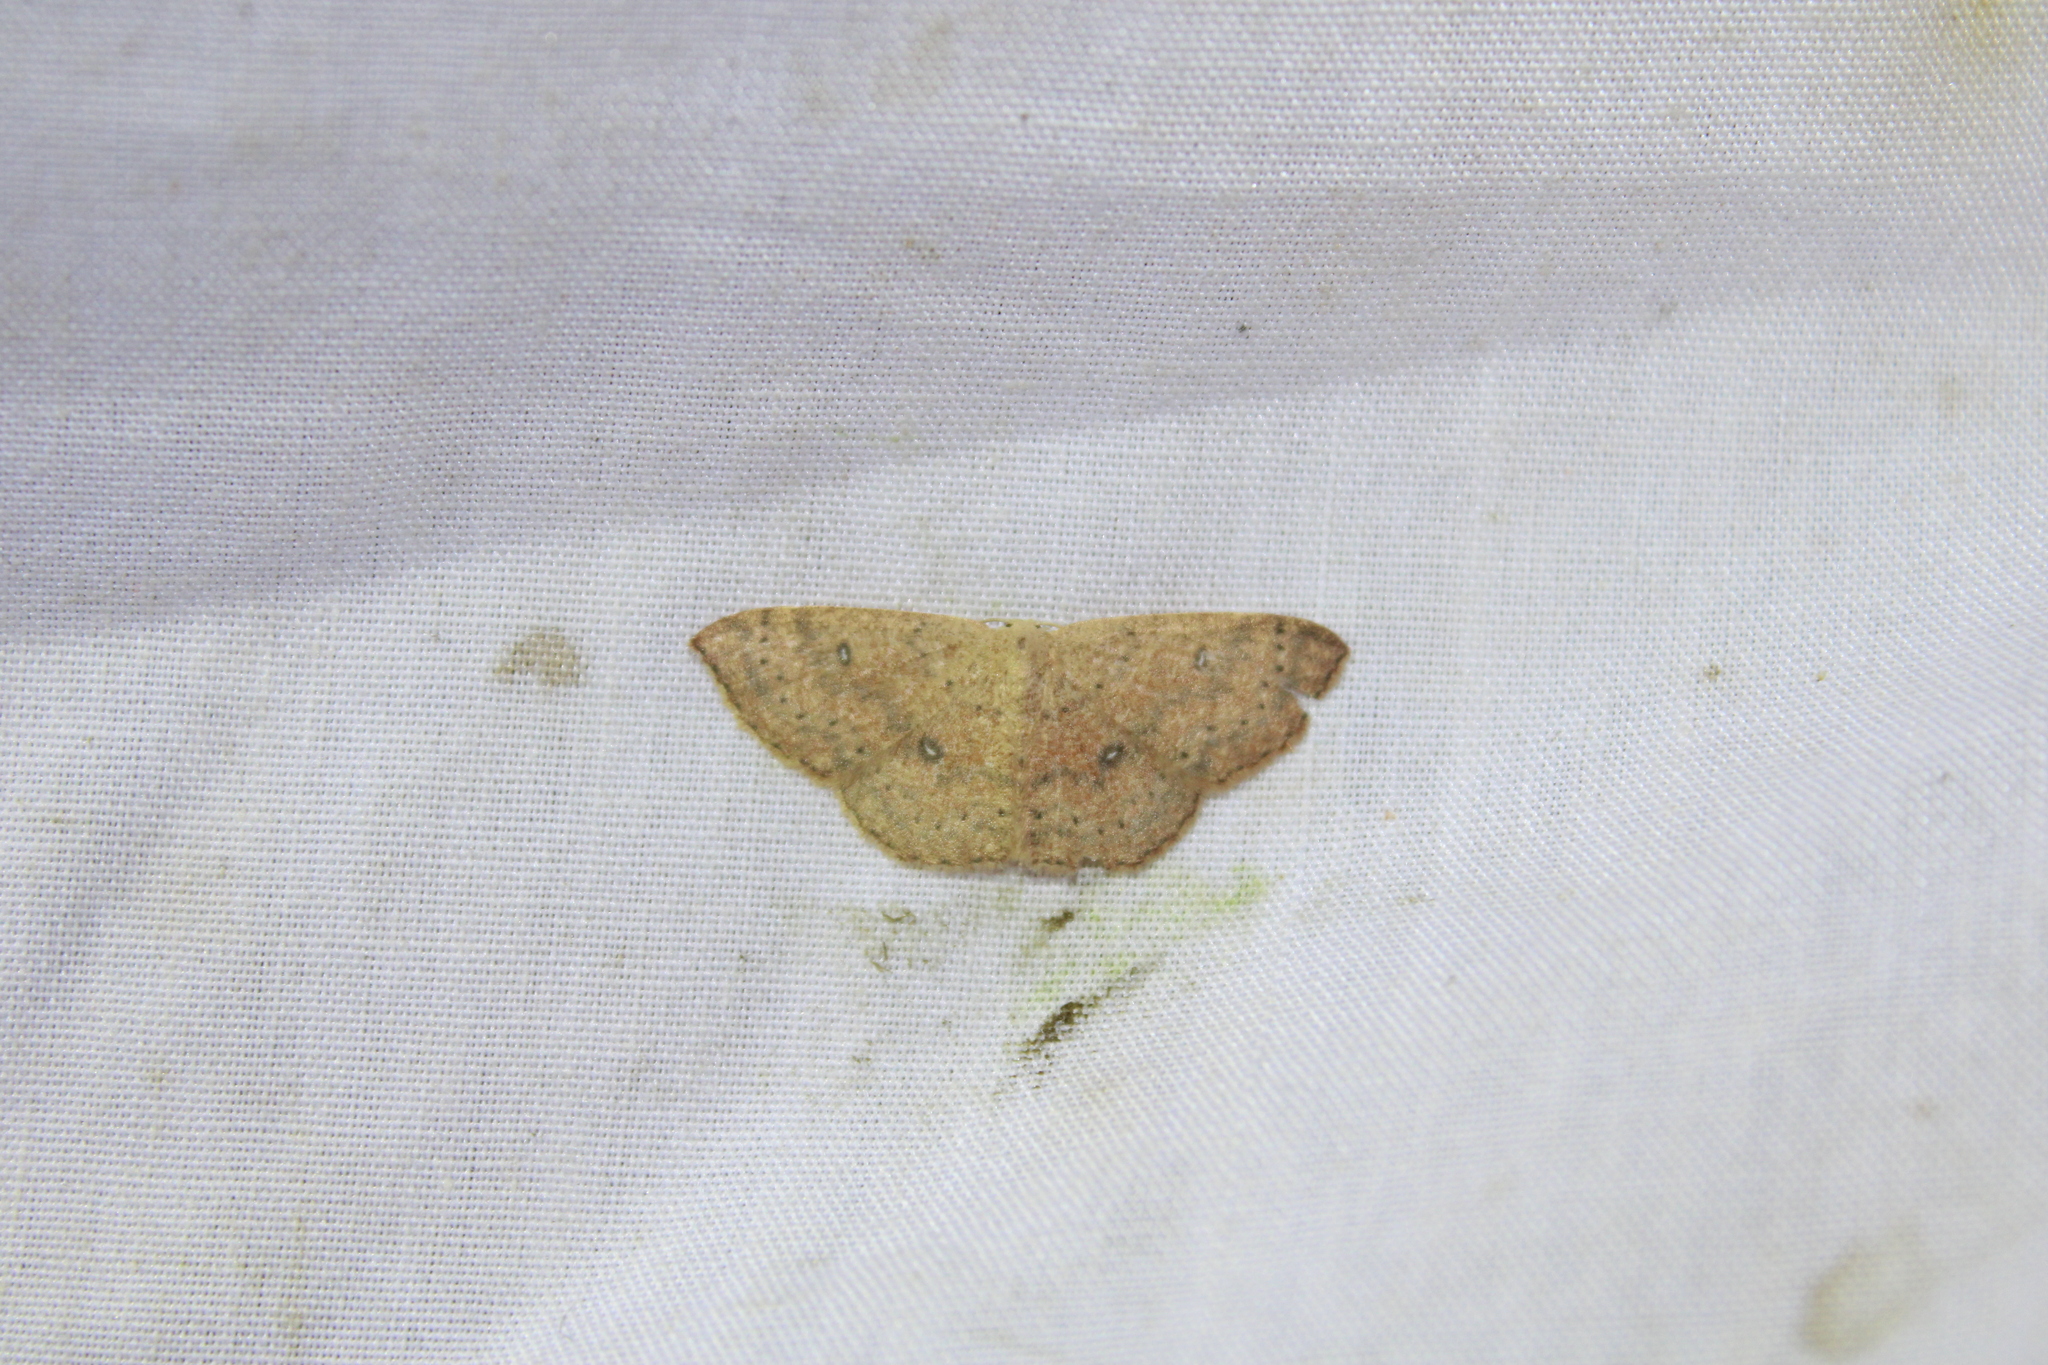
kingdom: Animalia
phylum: Arthropoda
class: Insecta
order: Lepidoptera
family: Geometridae
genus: Cyclophora
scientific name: Cyclophora packardi
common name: Packard's wave
